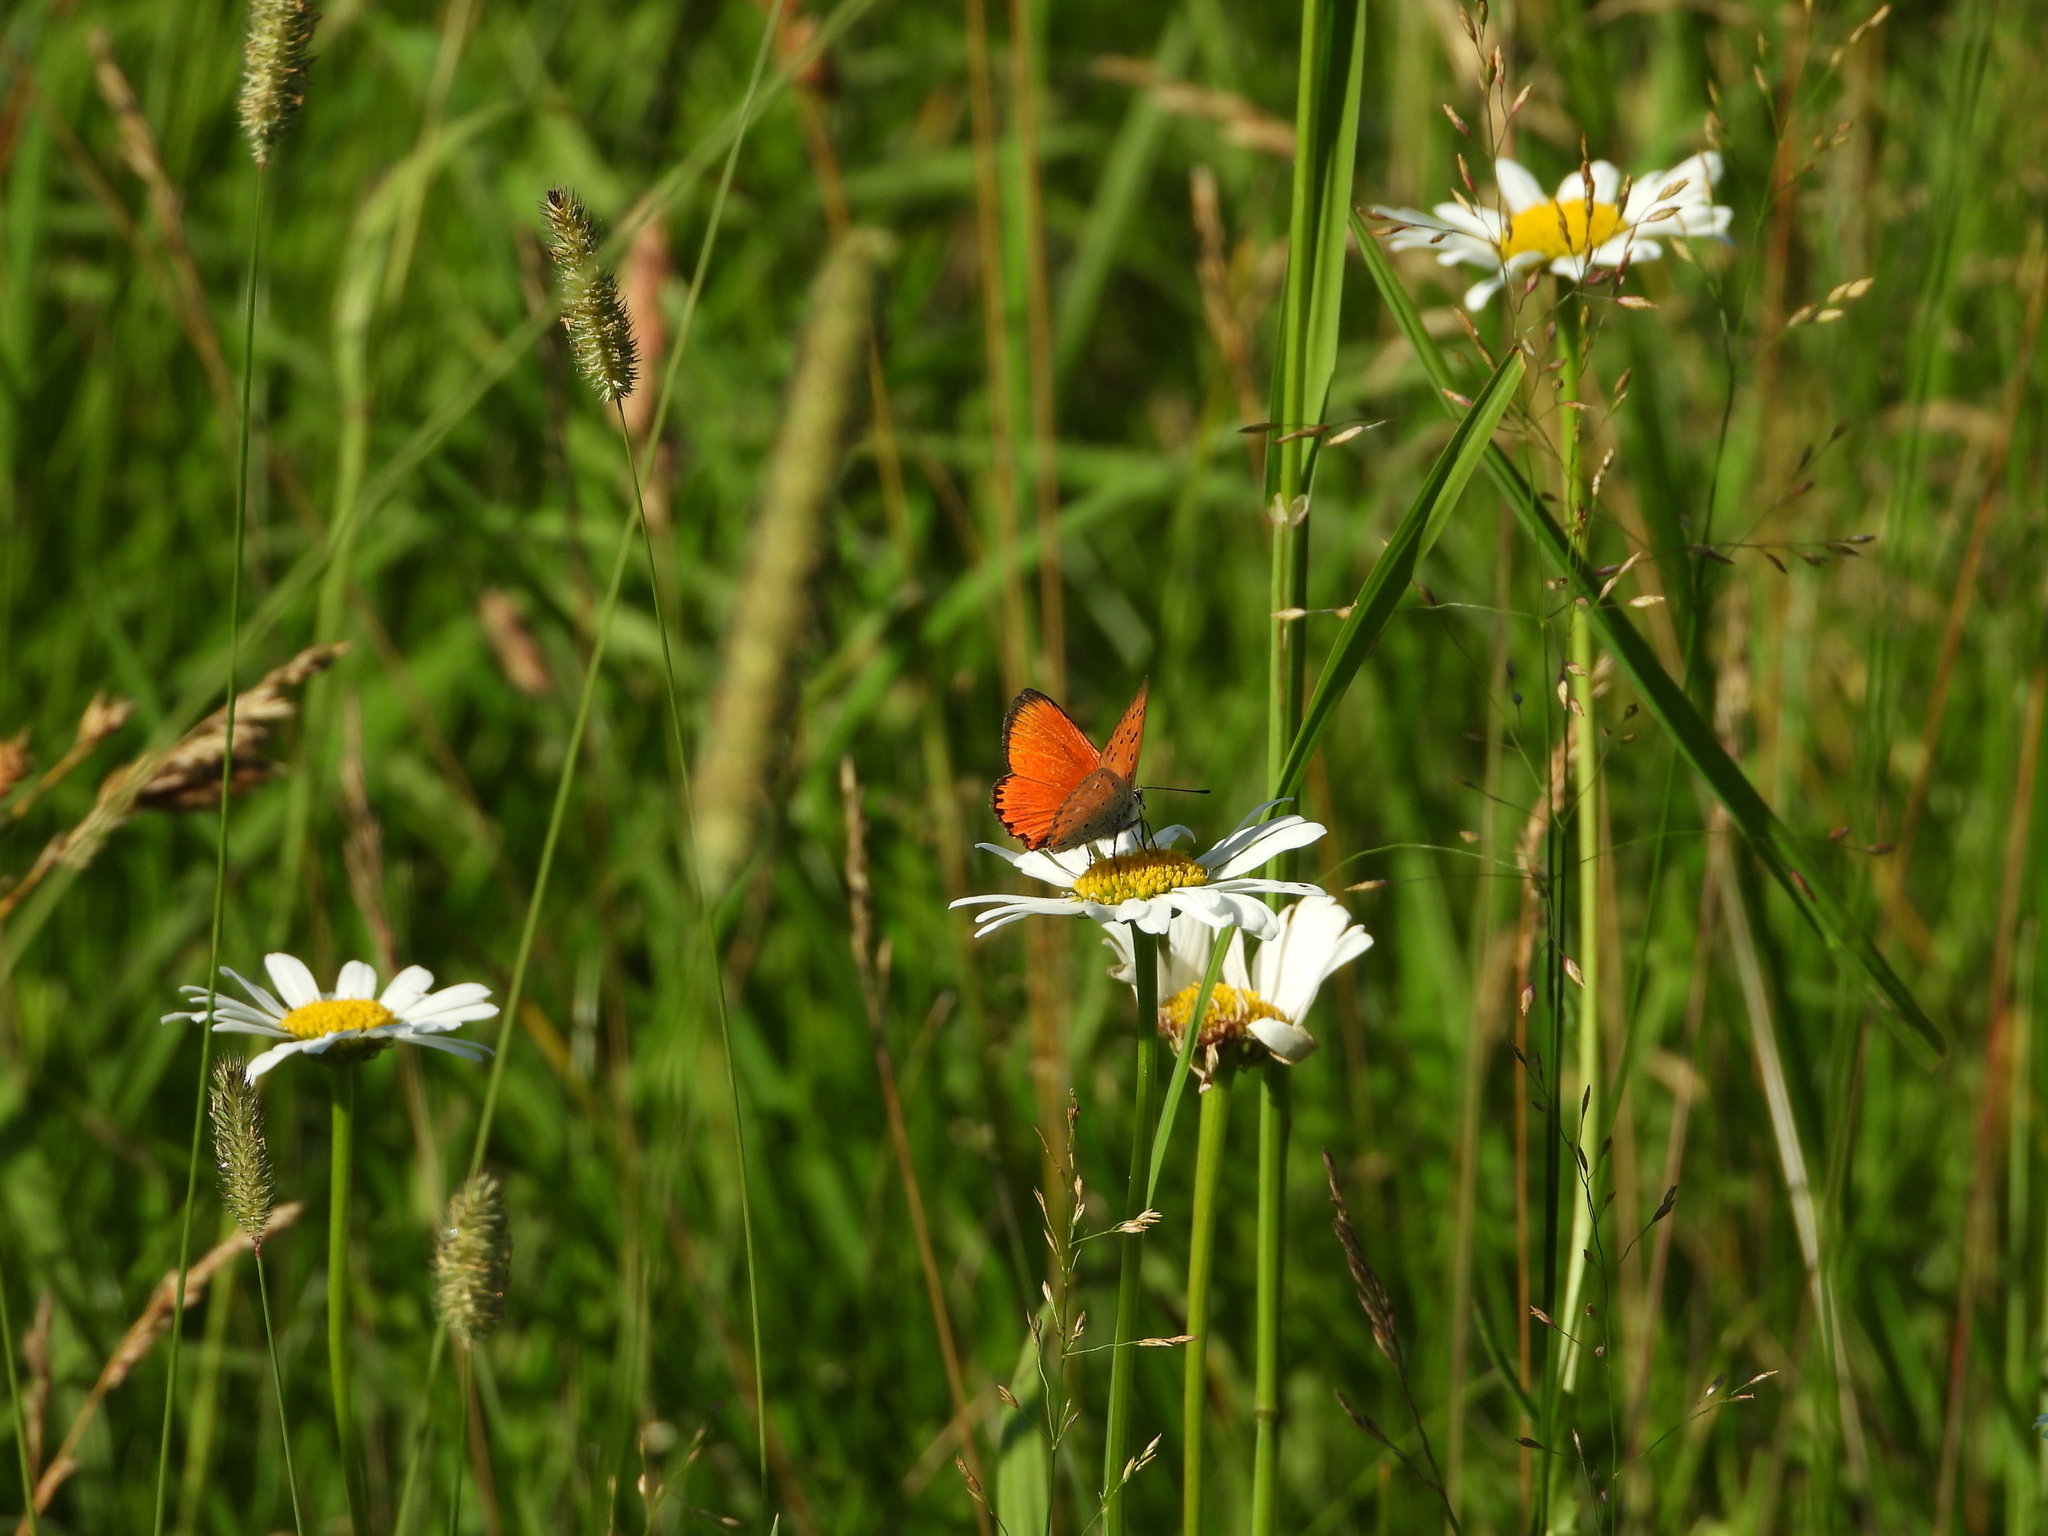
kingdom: Animalia
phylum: Arthropoda
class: Insecta
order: Lepidoptera
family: Lycaenidae
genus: Lycaena
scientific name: Lycaena virgaureae
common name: Scarce copper
